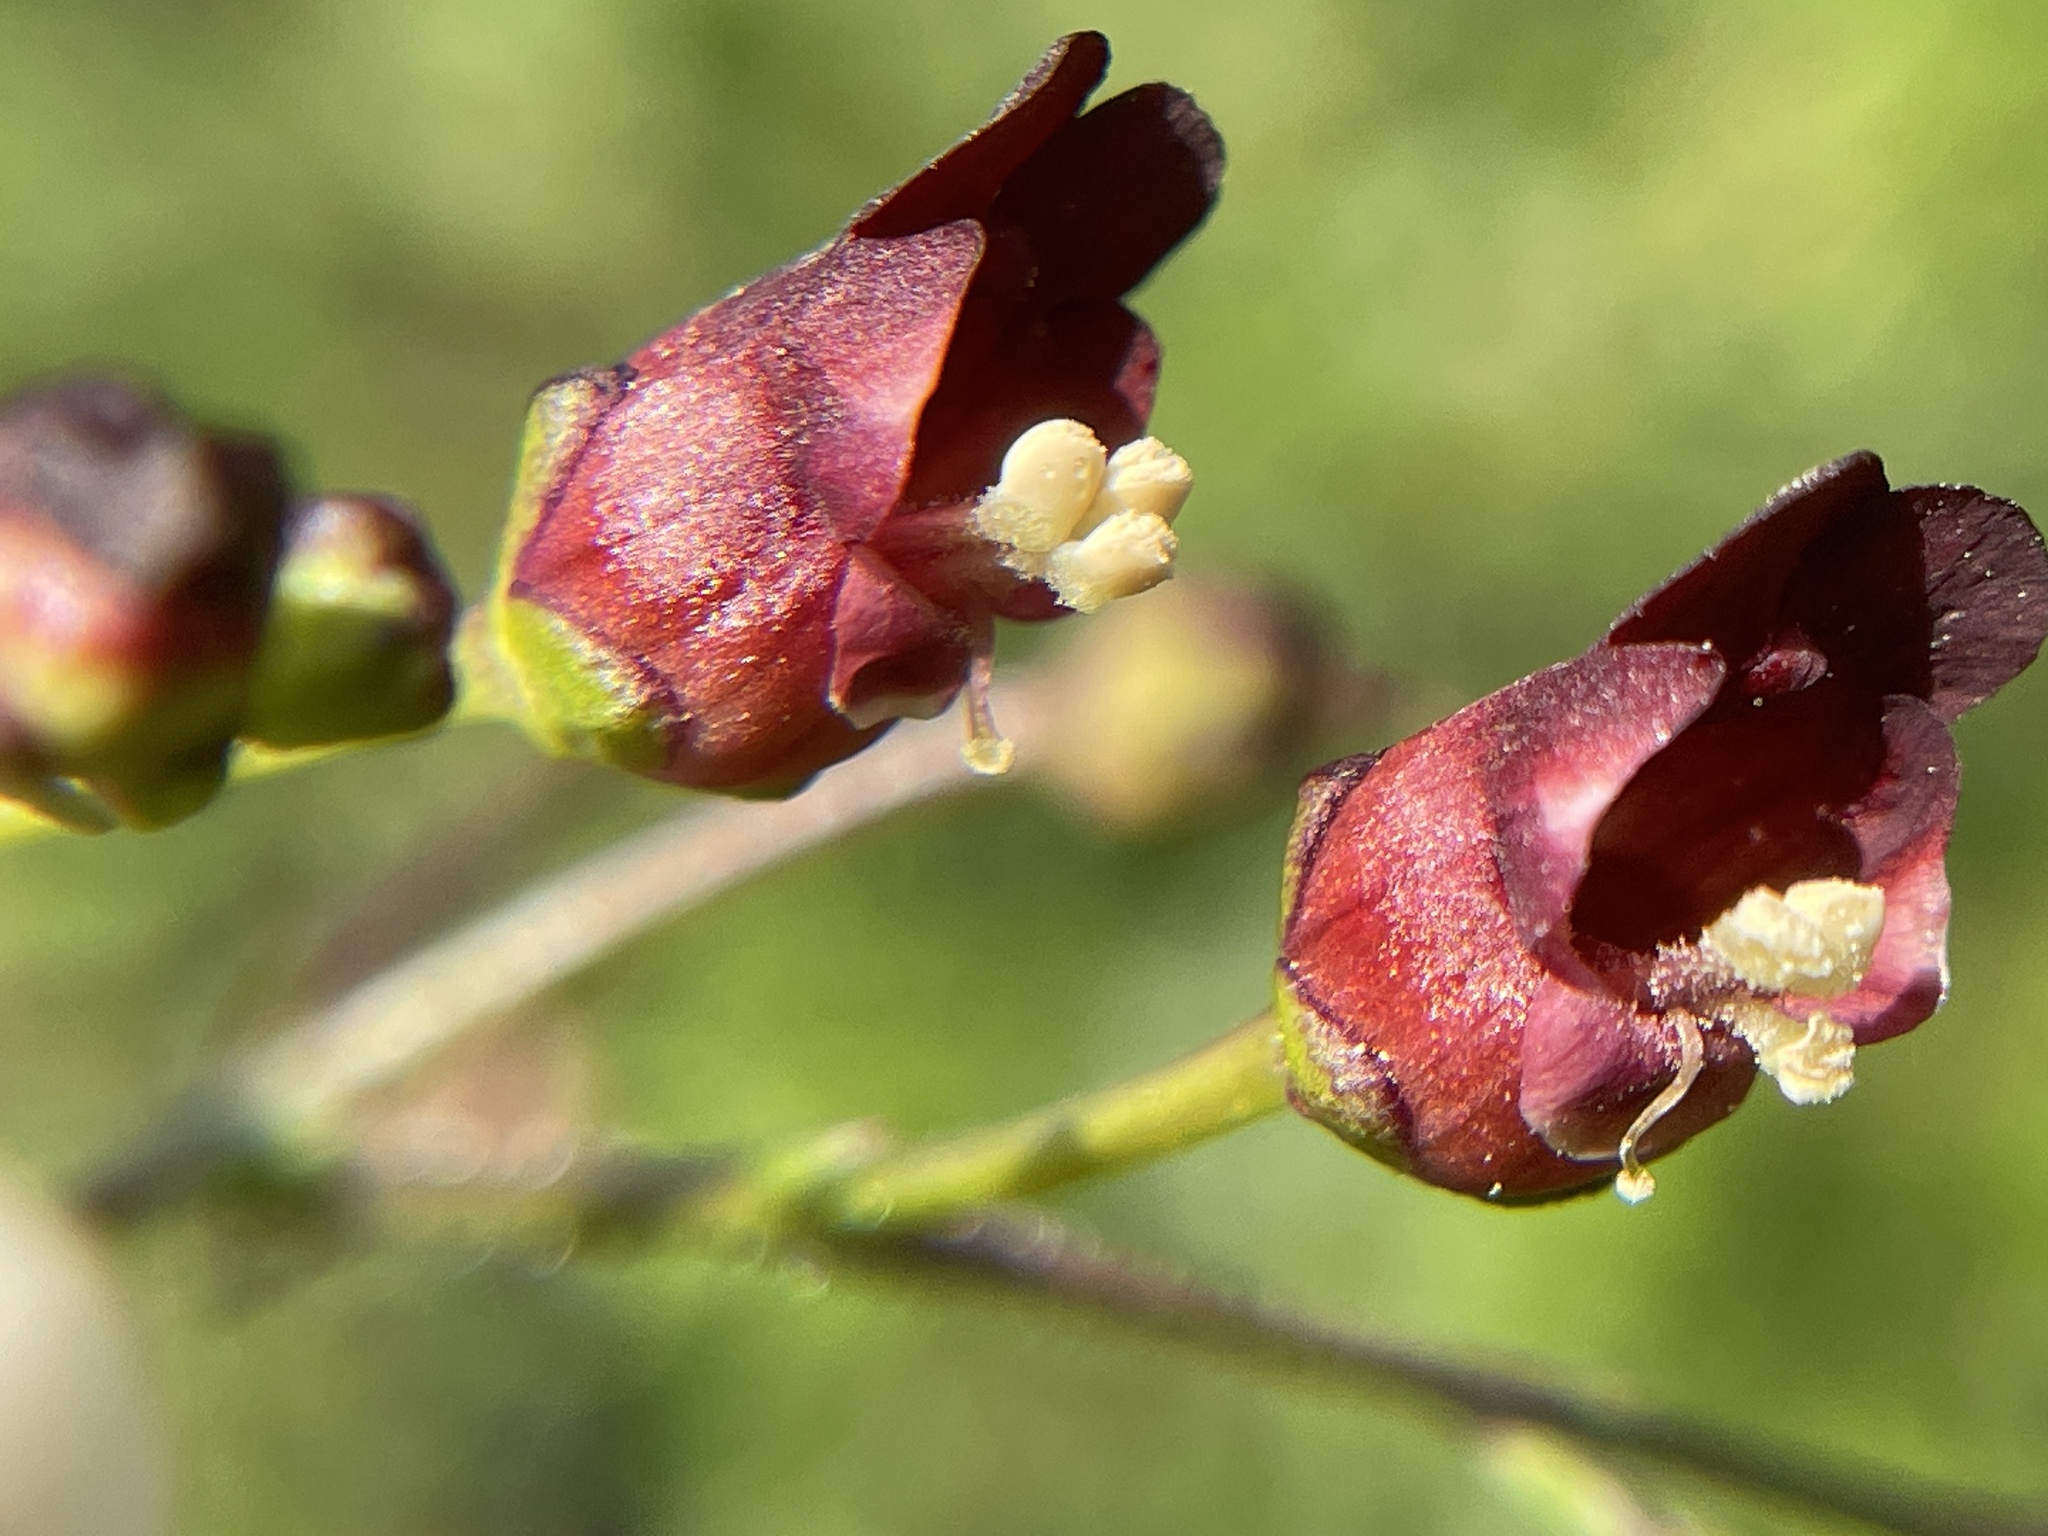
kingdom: Plantae
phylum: Tracheophyta
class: Magnoliopsida
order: Lamiales
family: Scrophulariaceae
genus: Scrophularia
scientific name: Scrophularia californica
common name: California figwort
